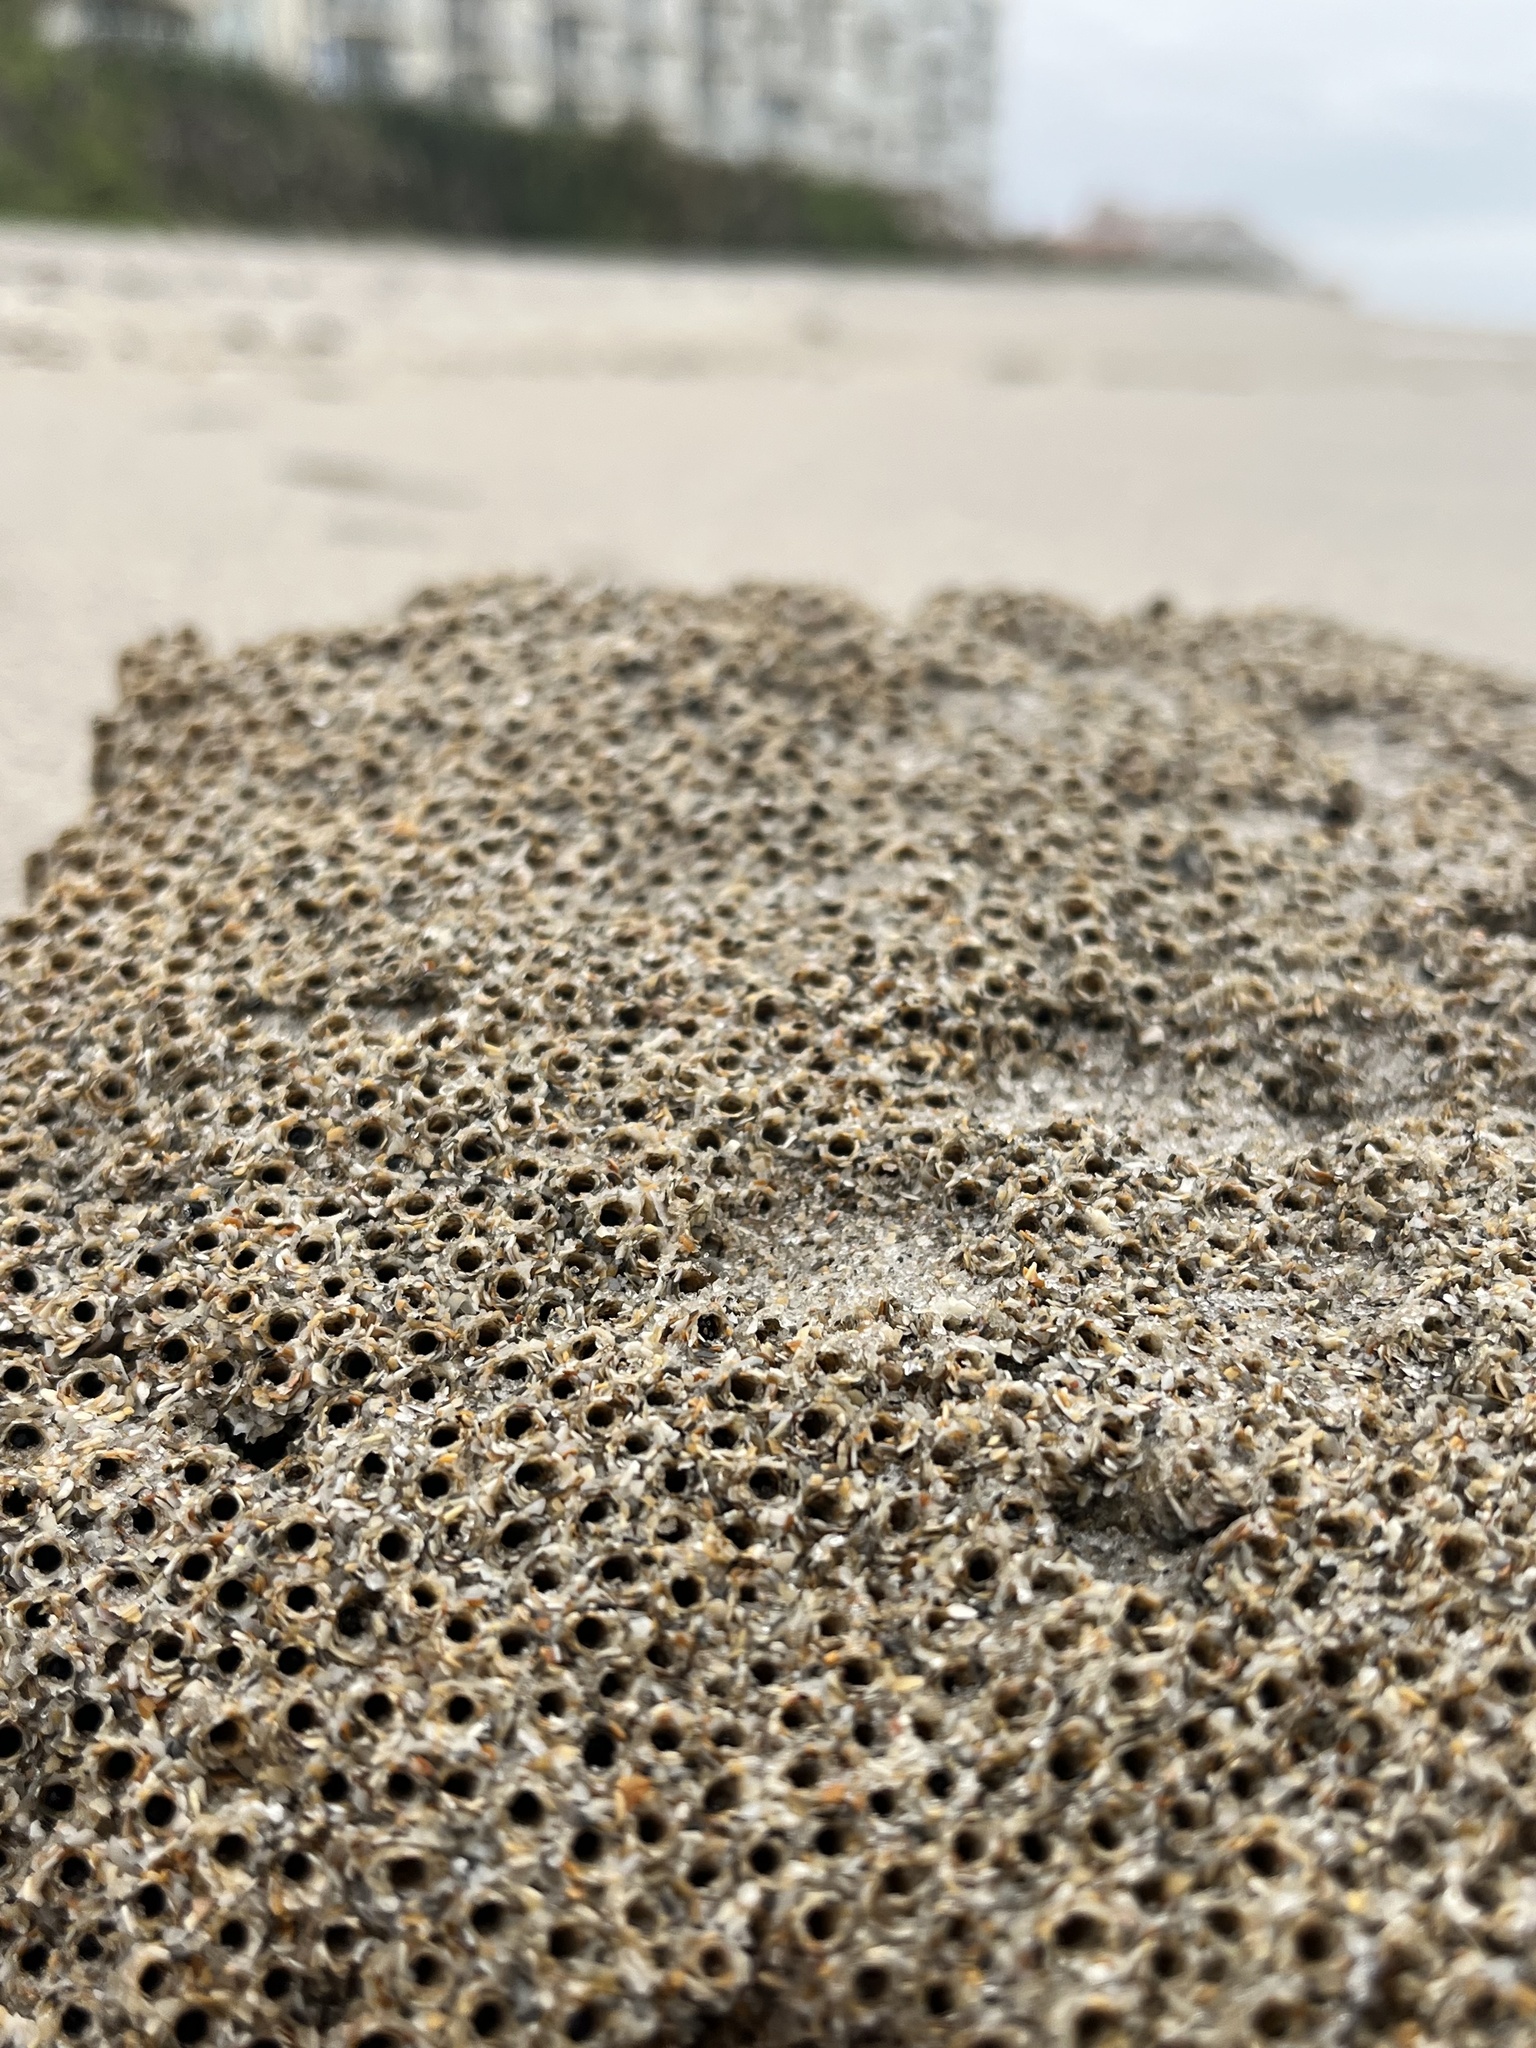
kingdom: Animalia
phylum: Annelida
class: Polychaeta
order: Sabellida
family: Sabellariidae
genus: Phragmatopoma
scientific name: Phragmatopoma caudata
